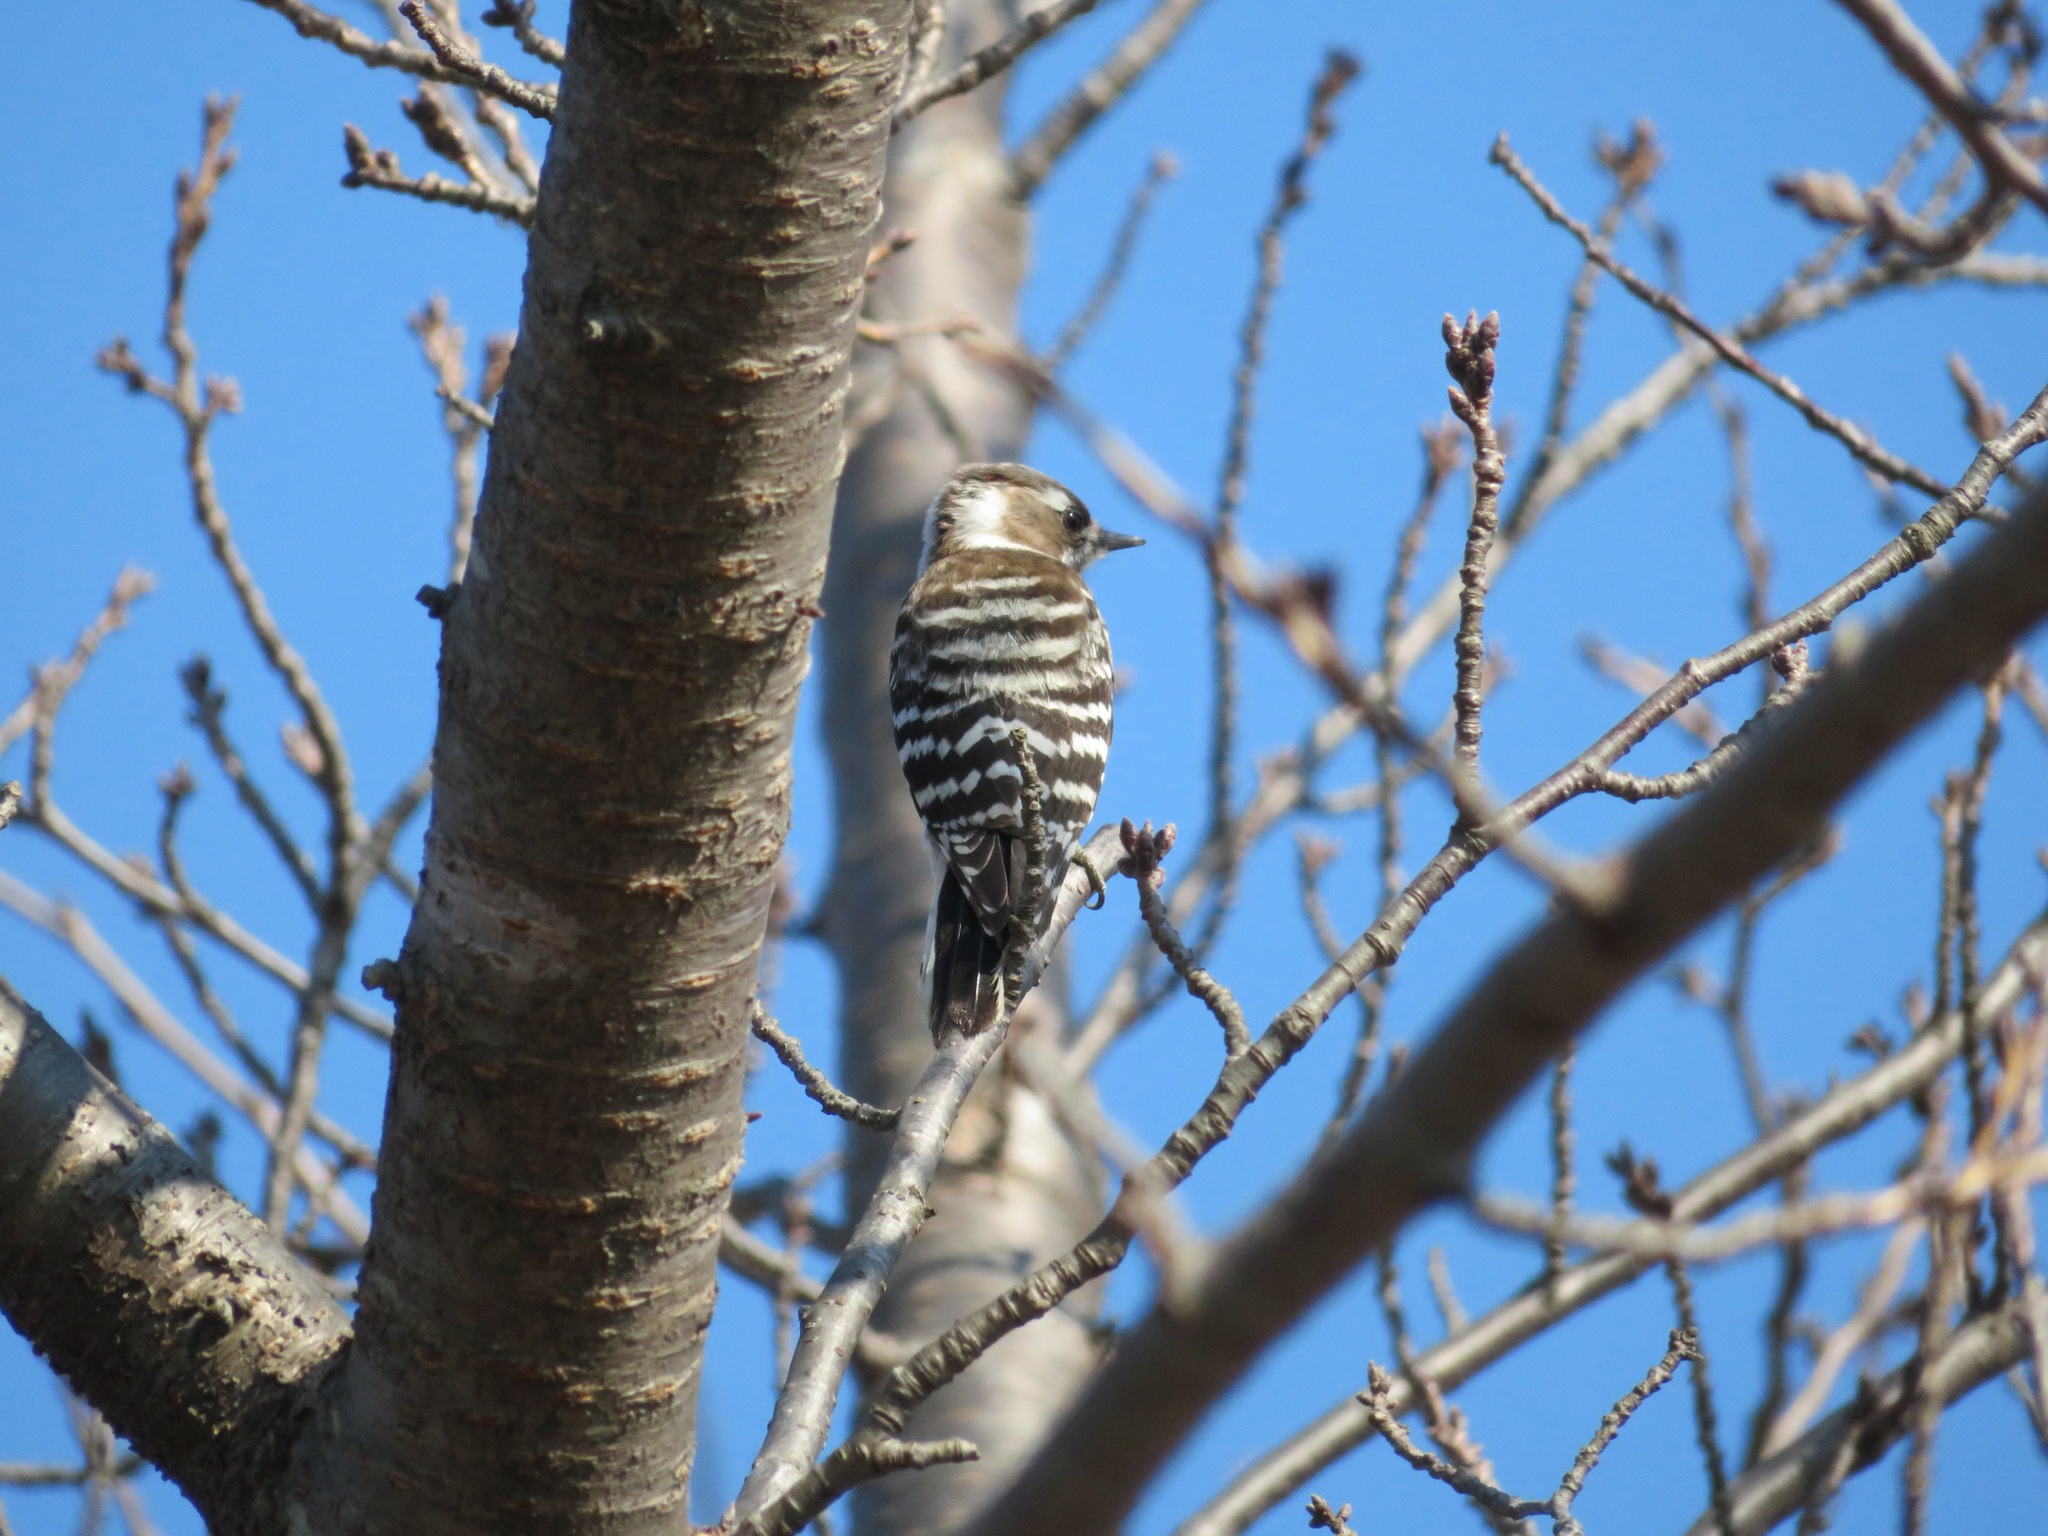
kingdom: Animalia
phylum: Chordata
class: Aves
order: Piciformes
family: Picidae
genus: Yungipicus
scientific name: Yungipicus kizuki
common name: Japanese pygmy woodpecker
